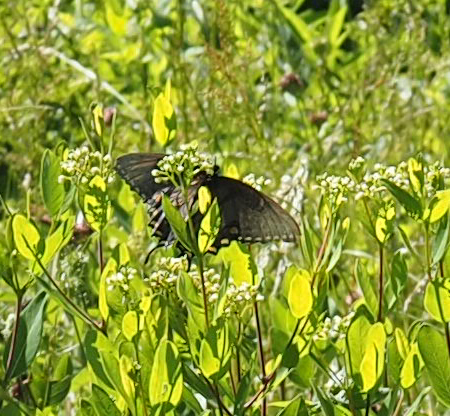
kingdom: Animalia
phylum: Arthropoda
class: Insecta
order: Lepidoptera
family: Papilionidae
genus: Papilio
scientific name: Papilio glaucus
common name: Tiger swallowtail
